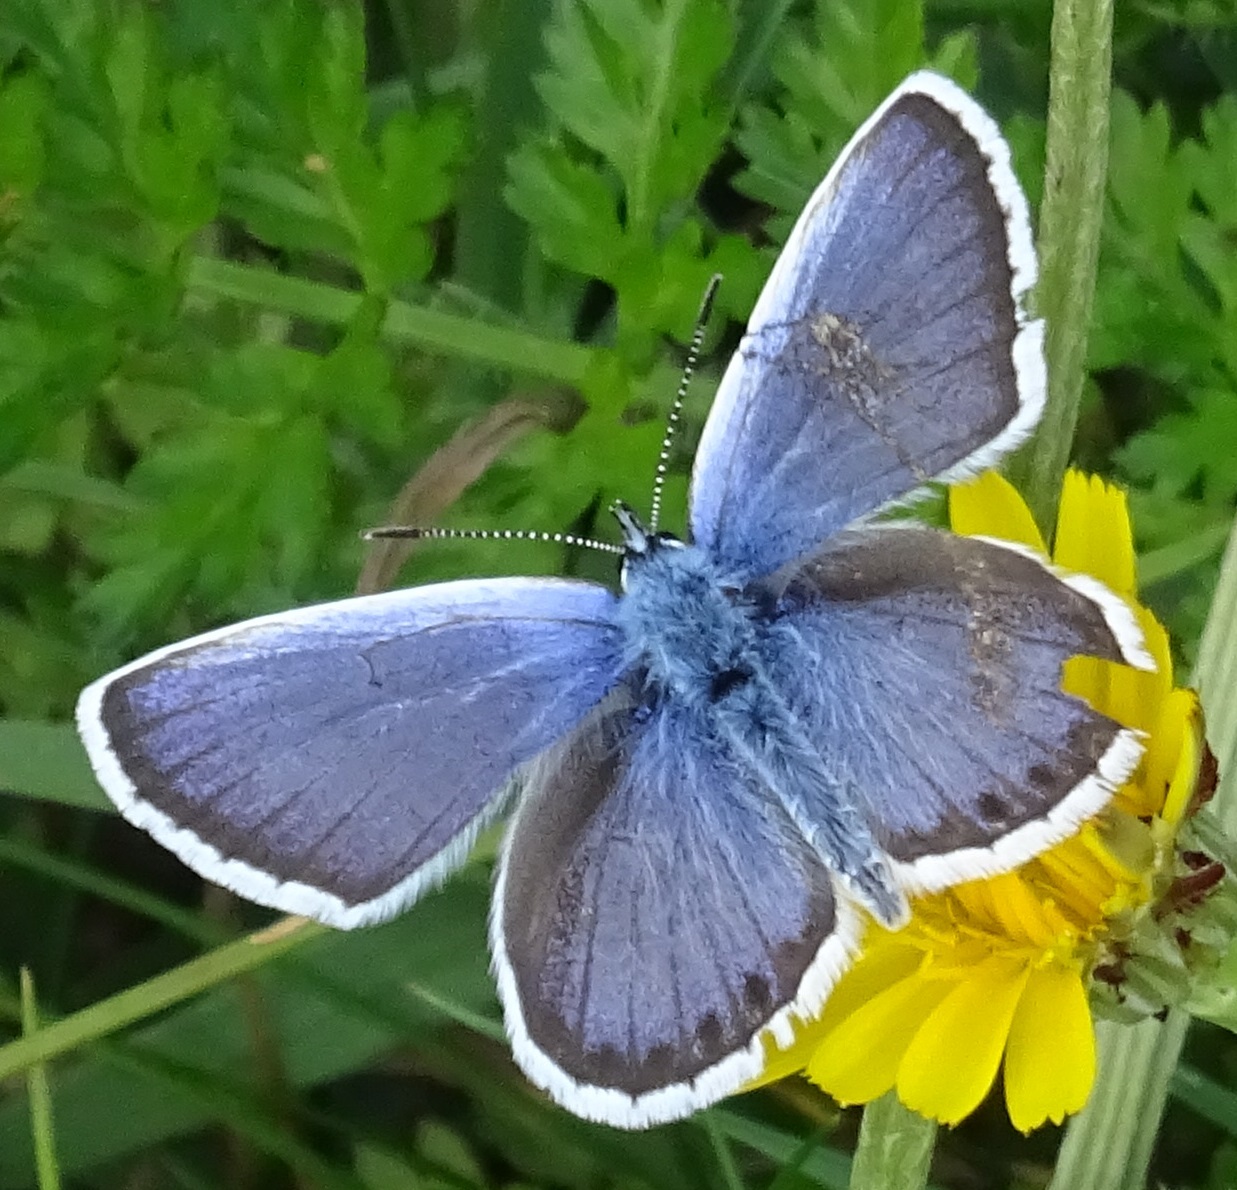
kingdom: Animalia
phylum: Arthropoda
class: Insecta
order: Lepidoptera
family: Lycaenidae
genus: Plebejus
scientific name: Plebejus argus
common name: Silver-studded blue
